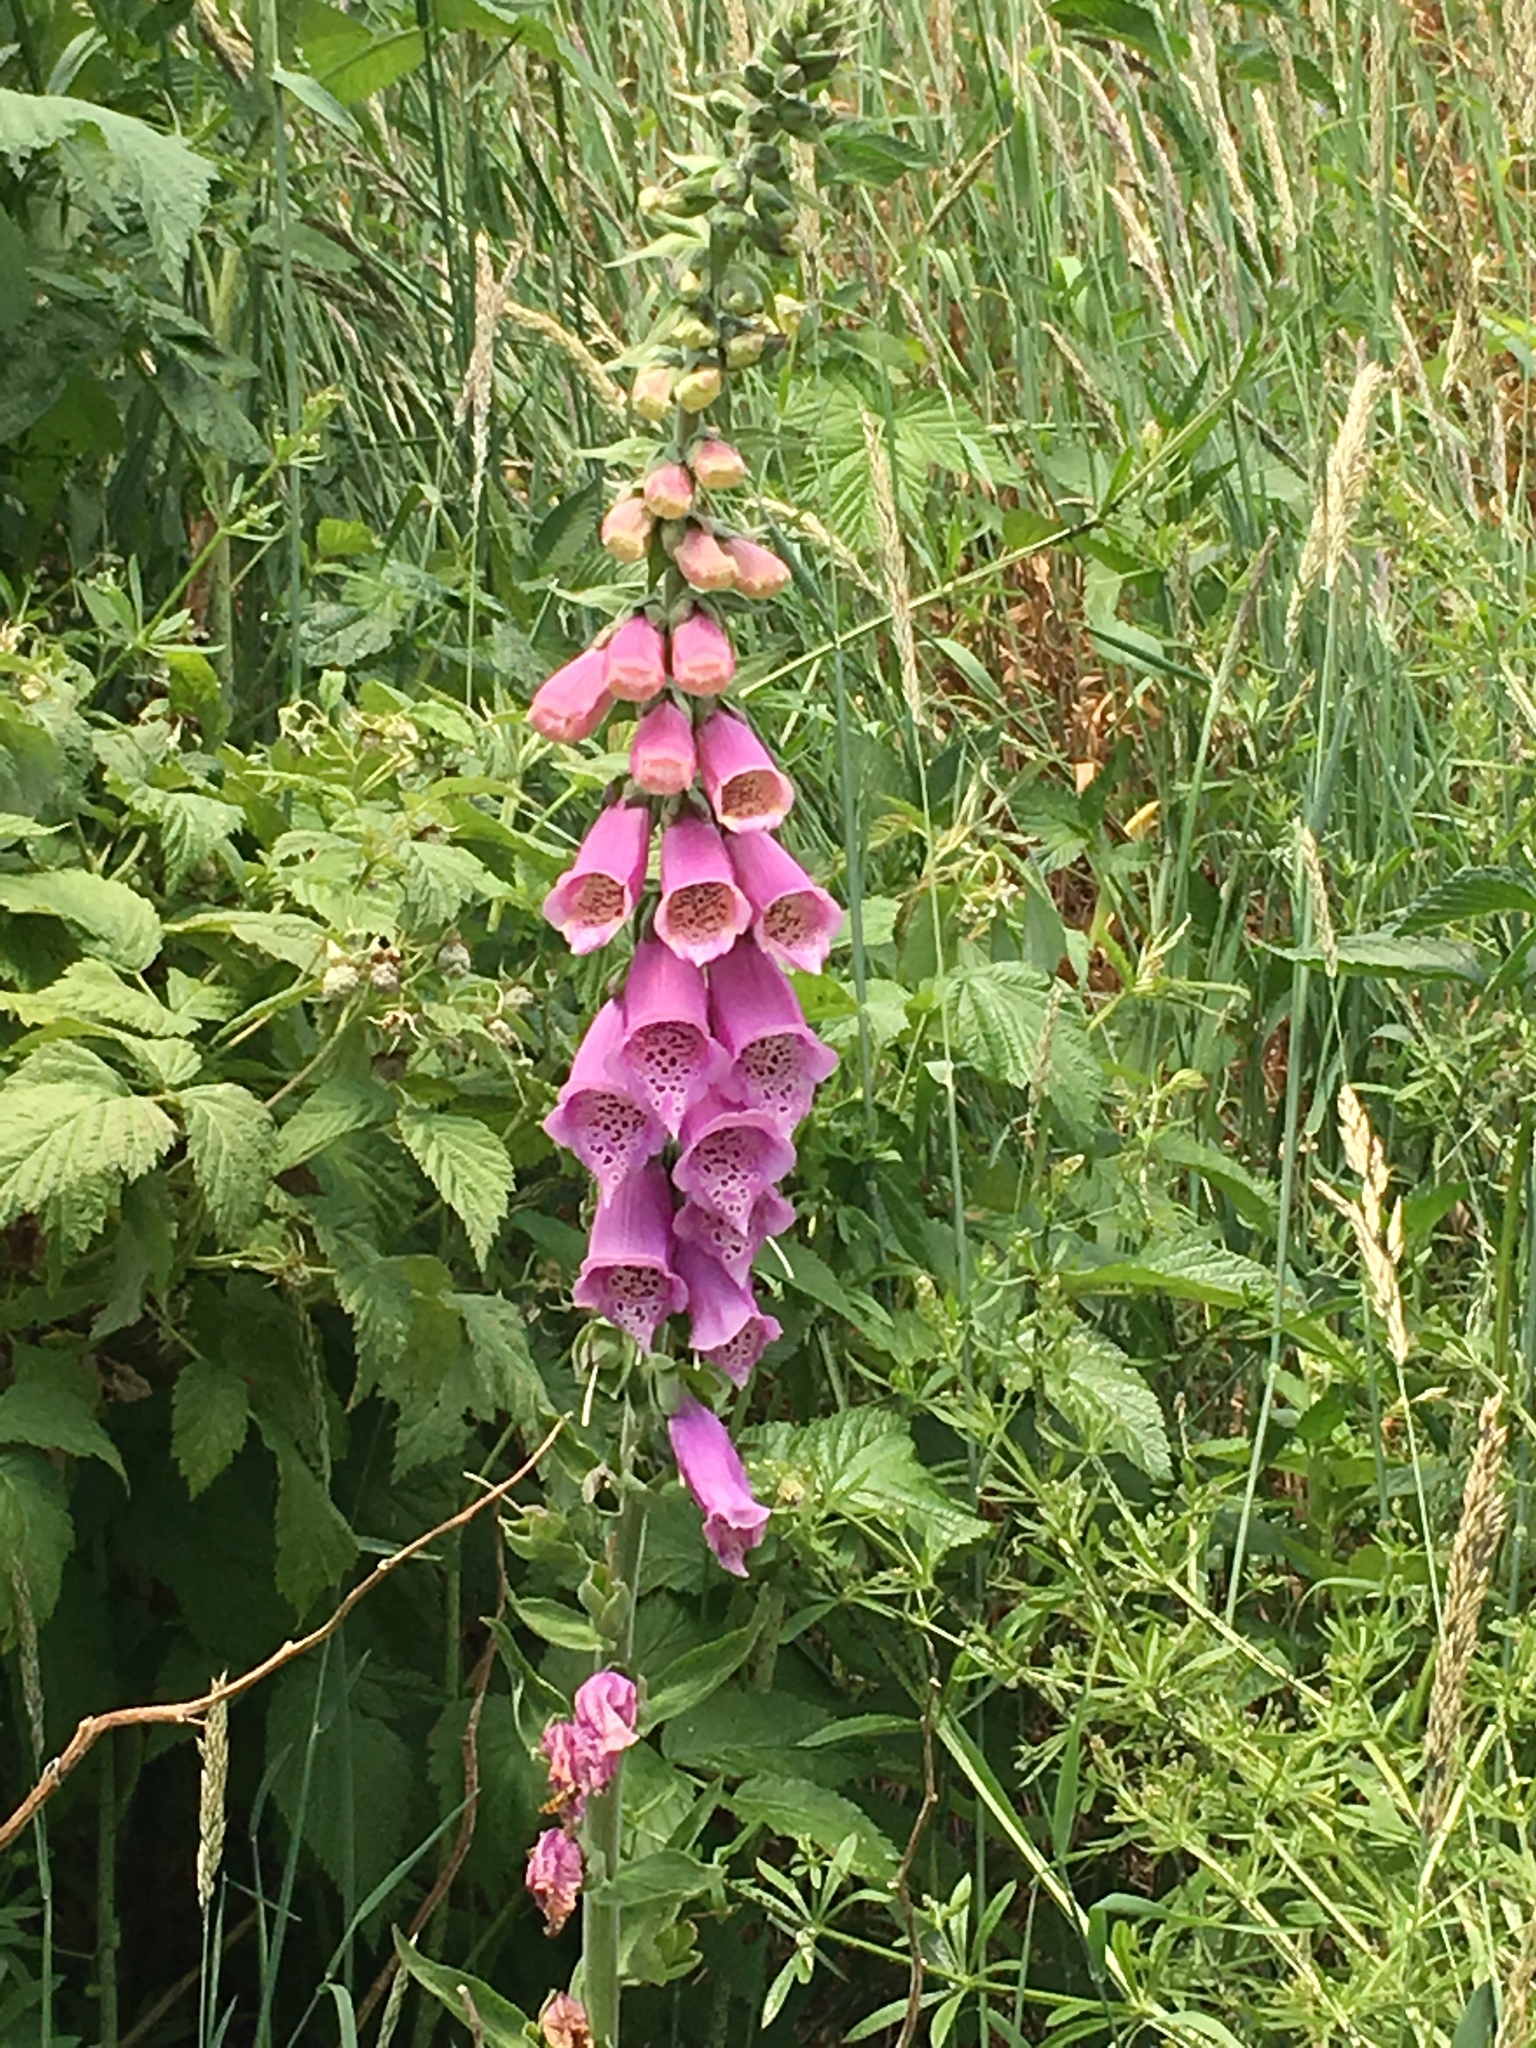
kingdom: Plantae
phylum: Tracheophyta
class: Magnoliopsida
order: Lamiales
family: Plantaginaceae
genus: Digitalis
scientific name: Digitalis purpurea
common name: Foxglove
